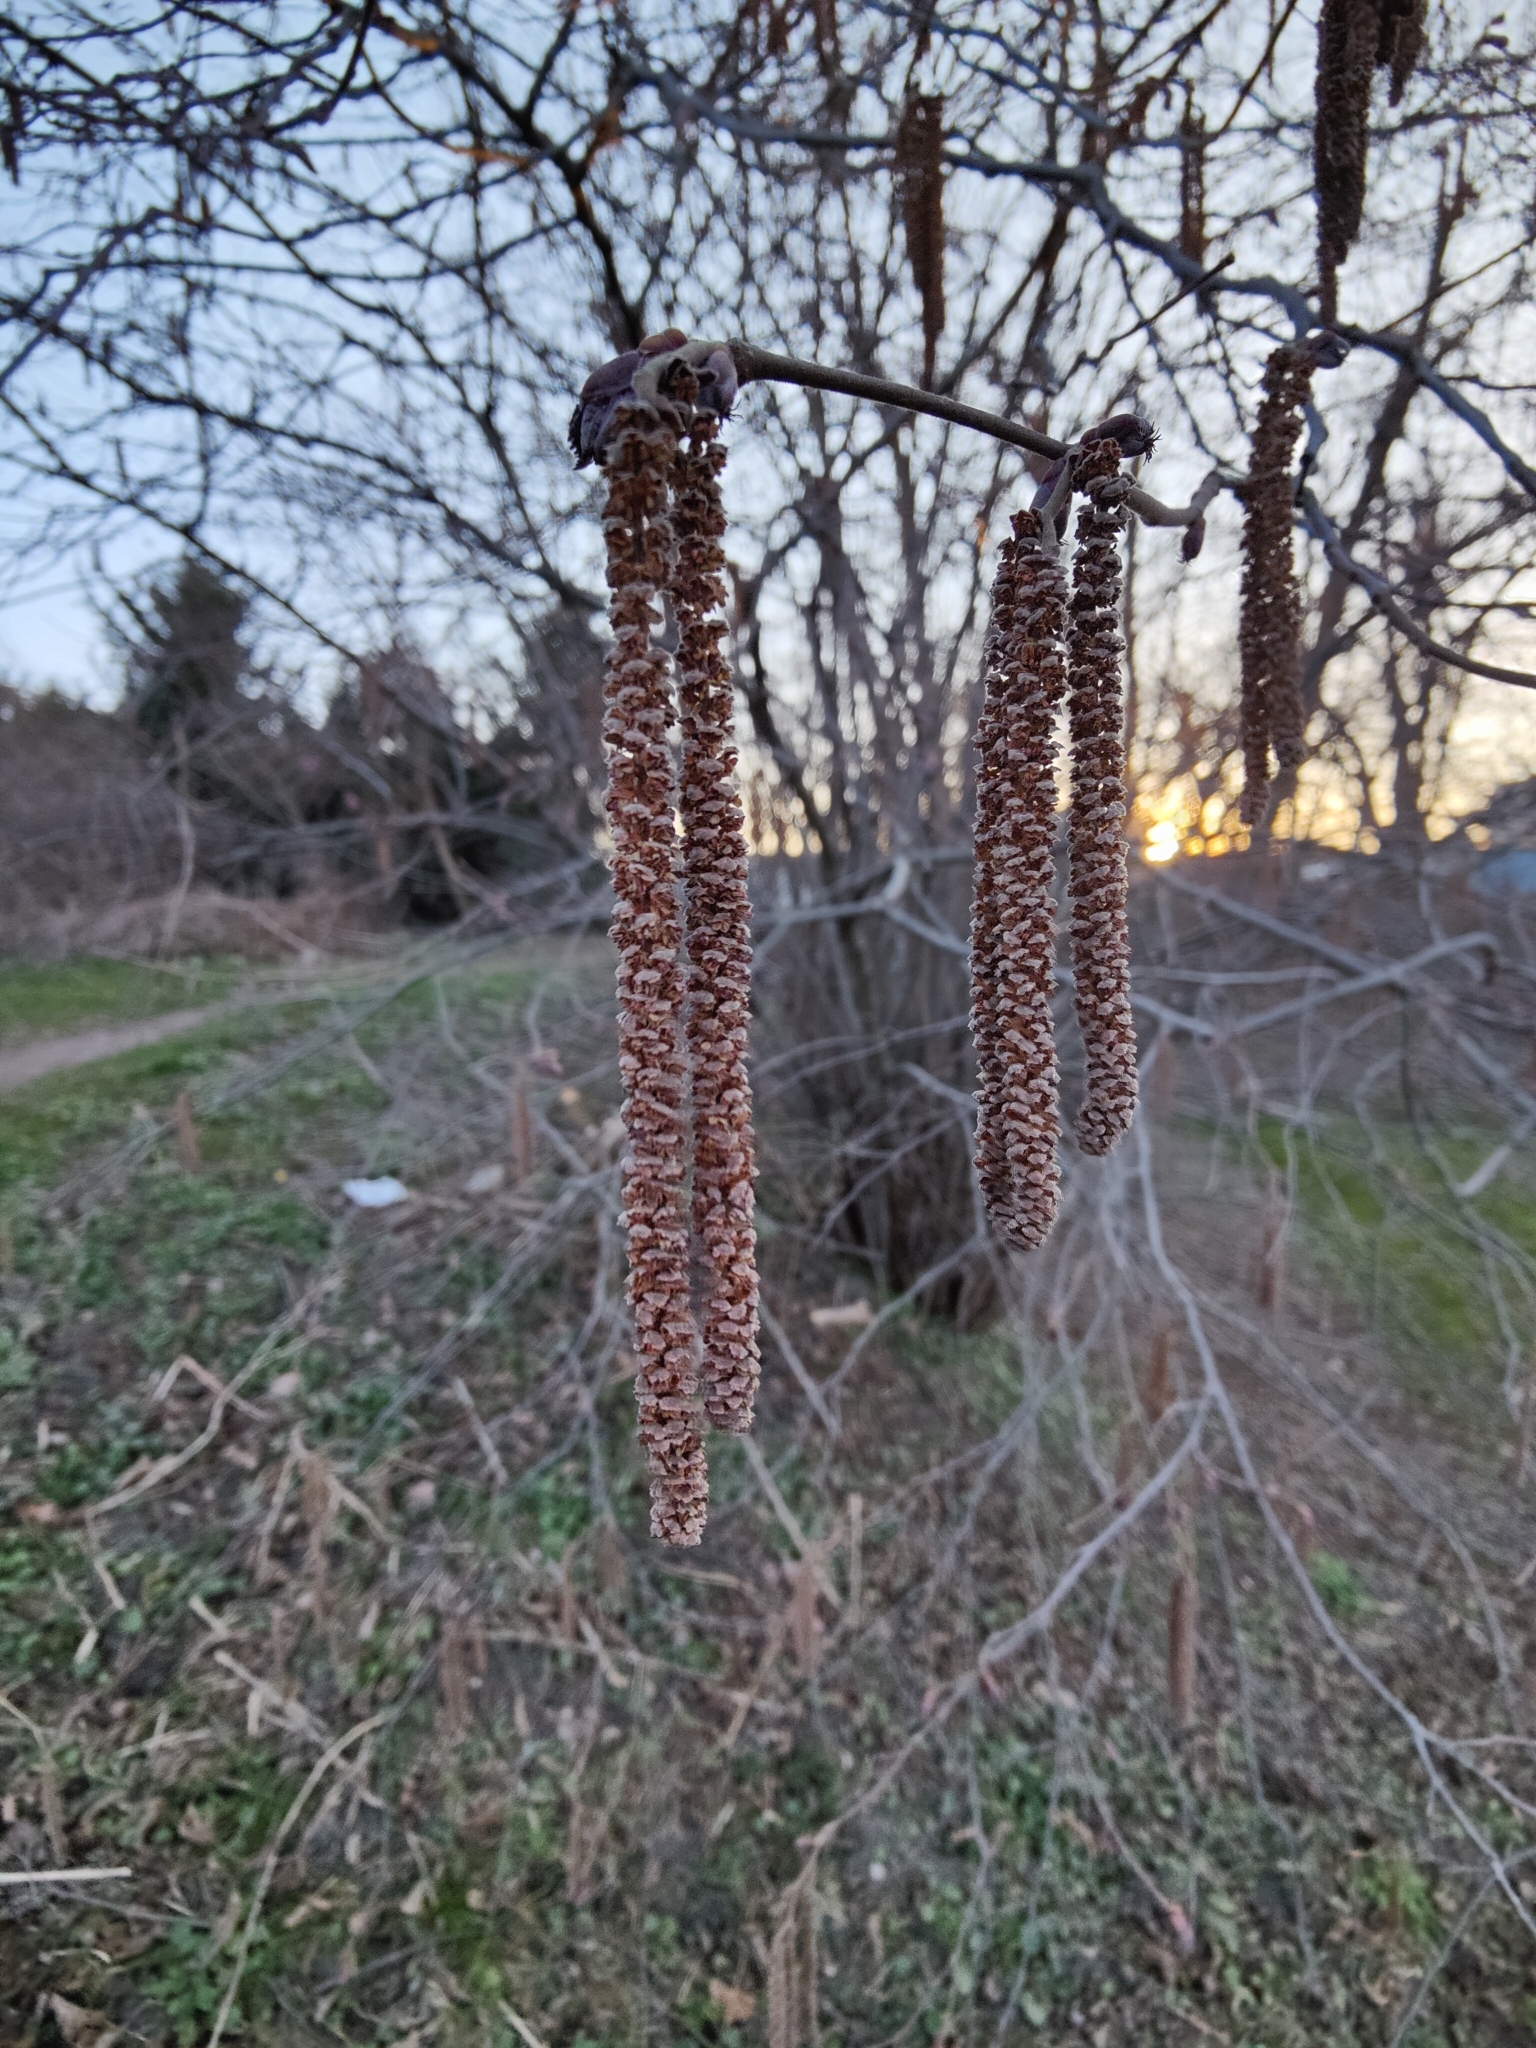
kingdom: Plantae
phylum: Tracheophyta
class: Magnoliopsida
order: Fagales
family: Betulaceae
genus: Corylus
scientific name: Corylus avellana
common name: European hazel
